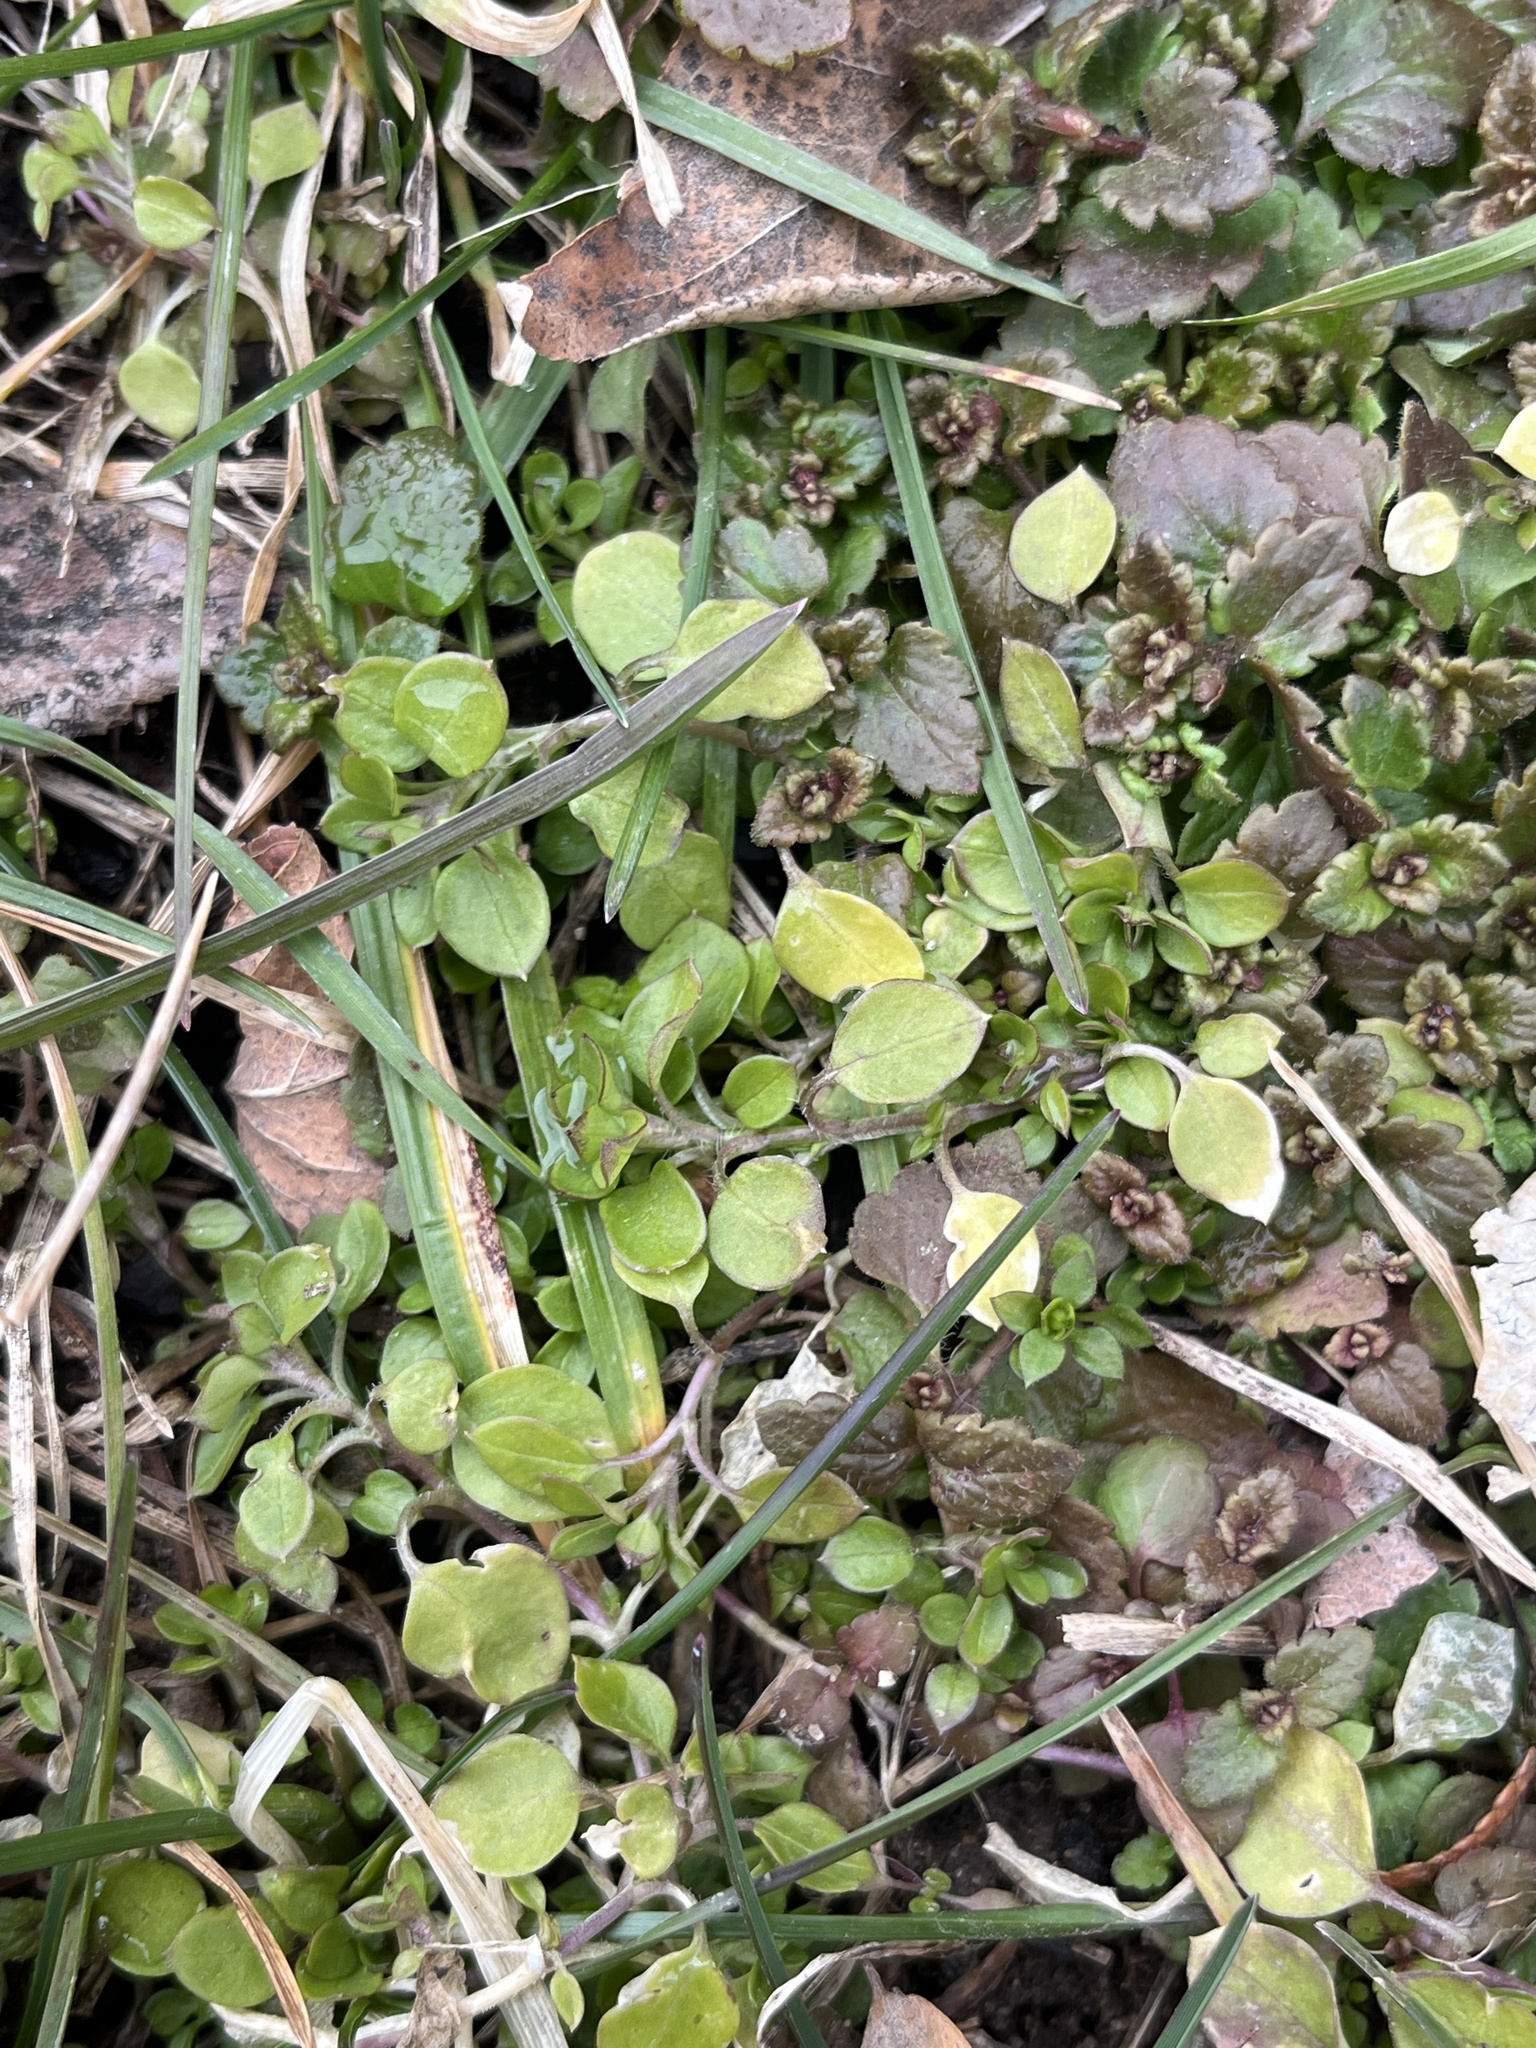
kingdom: Plantae
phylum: Tracheophyta
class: Magnoliopsida
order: Caryophyllales
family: Caryophyllaceae
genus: Stellaria
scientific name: Stellaria media
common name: Common chickweed
